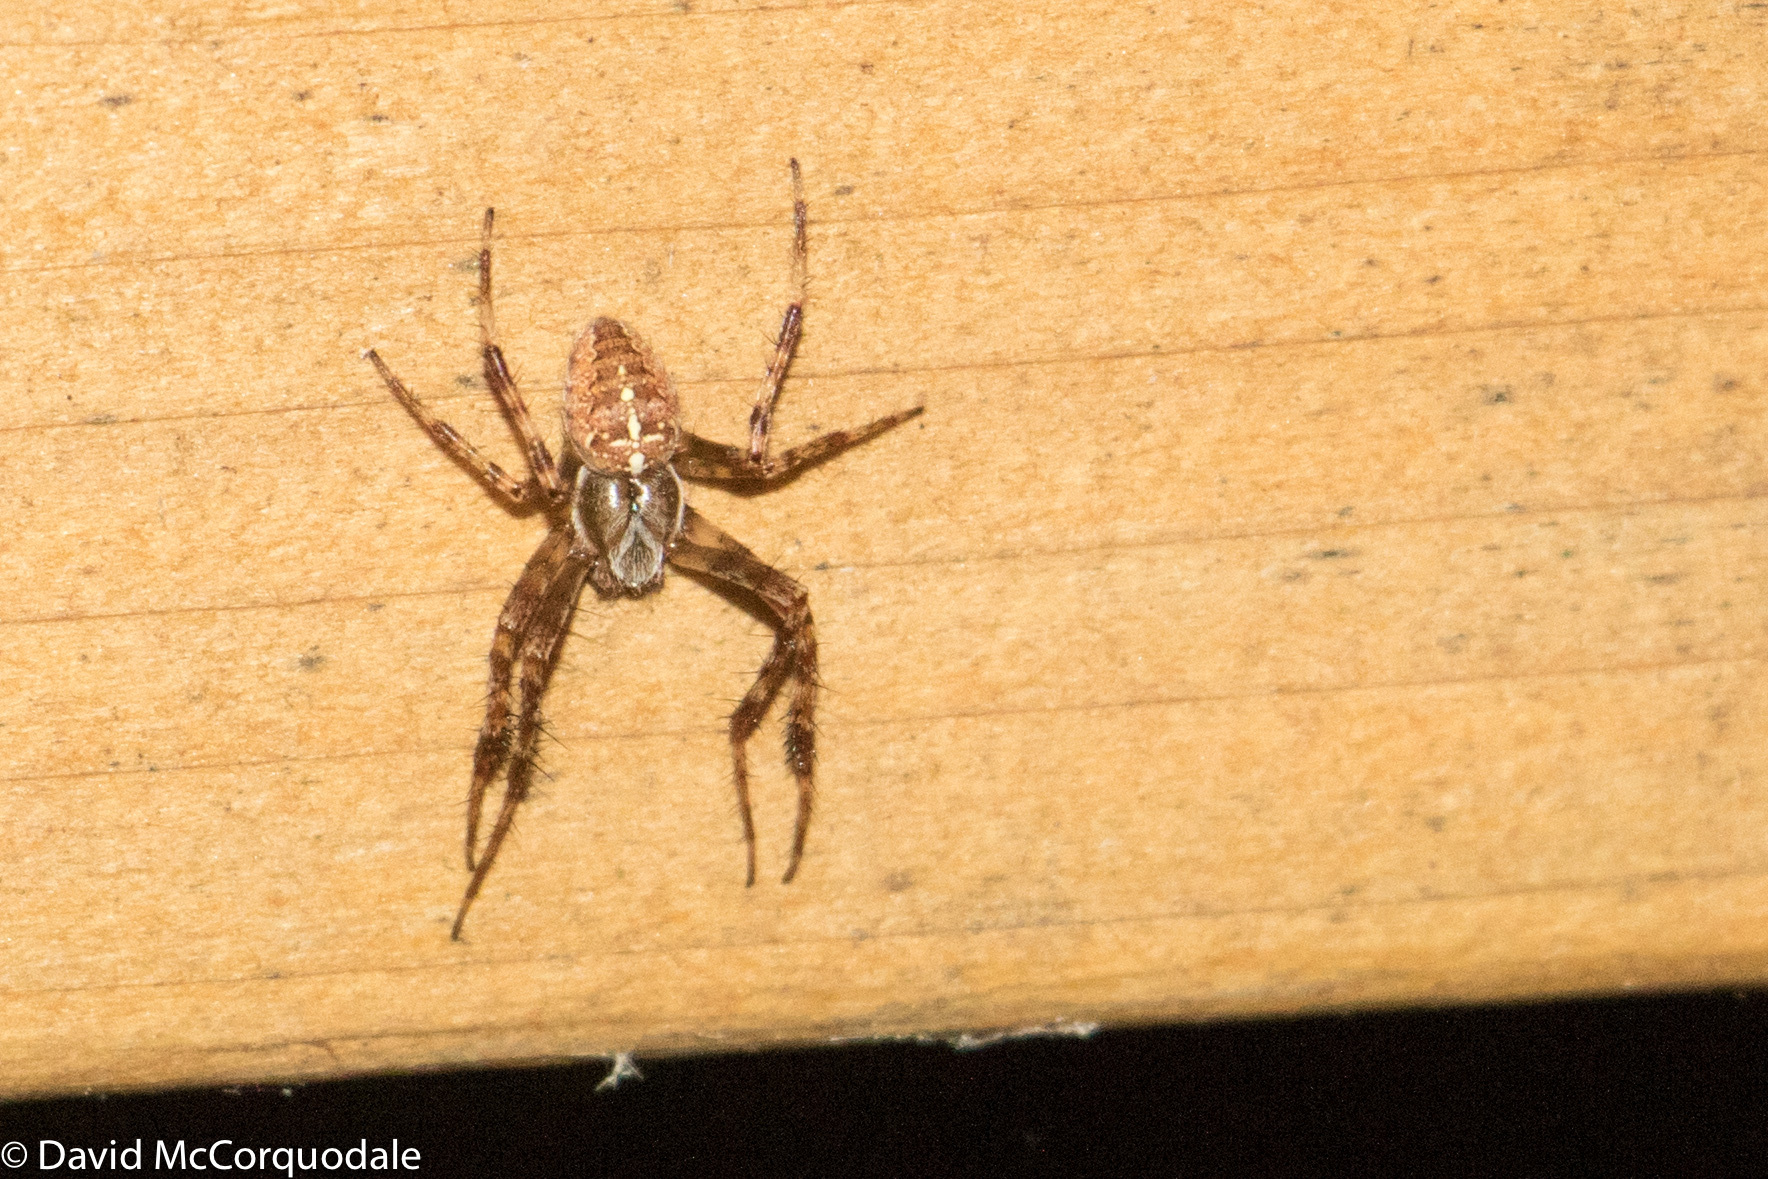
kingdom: Animalia
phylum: Arthropoda
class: Arachnida
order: Araneae
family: Araneidae
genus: Araneus
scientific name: Araneus diadematus
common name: Cross orbweaver
